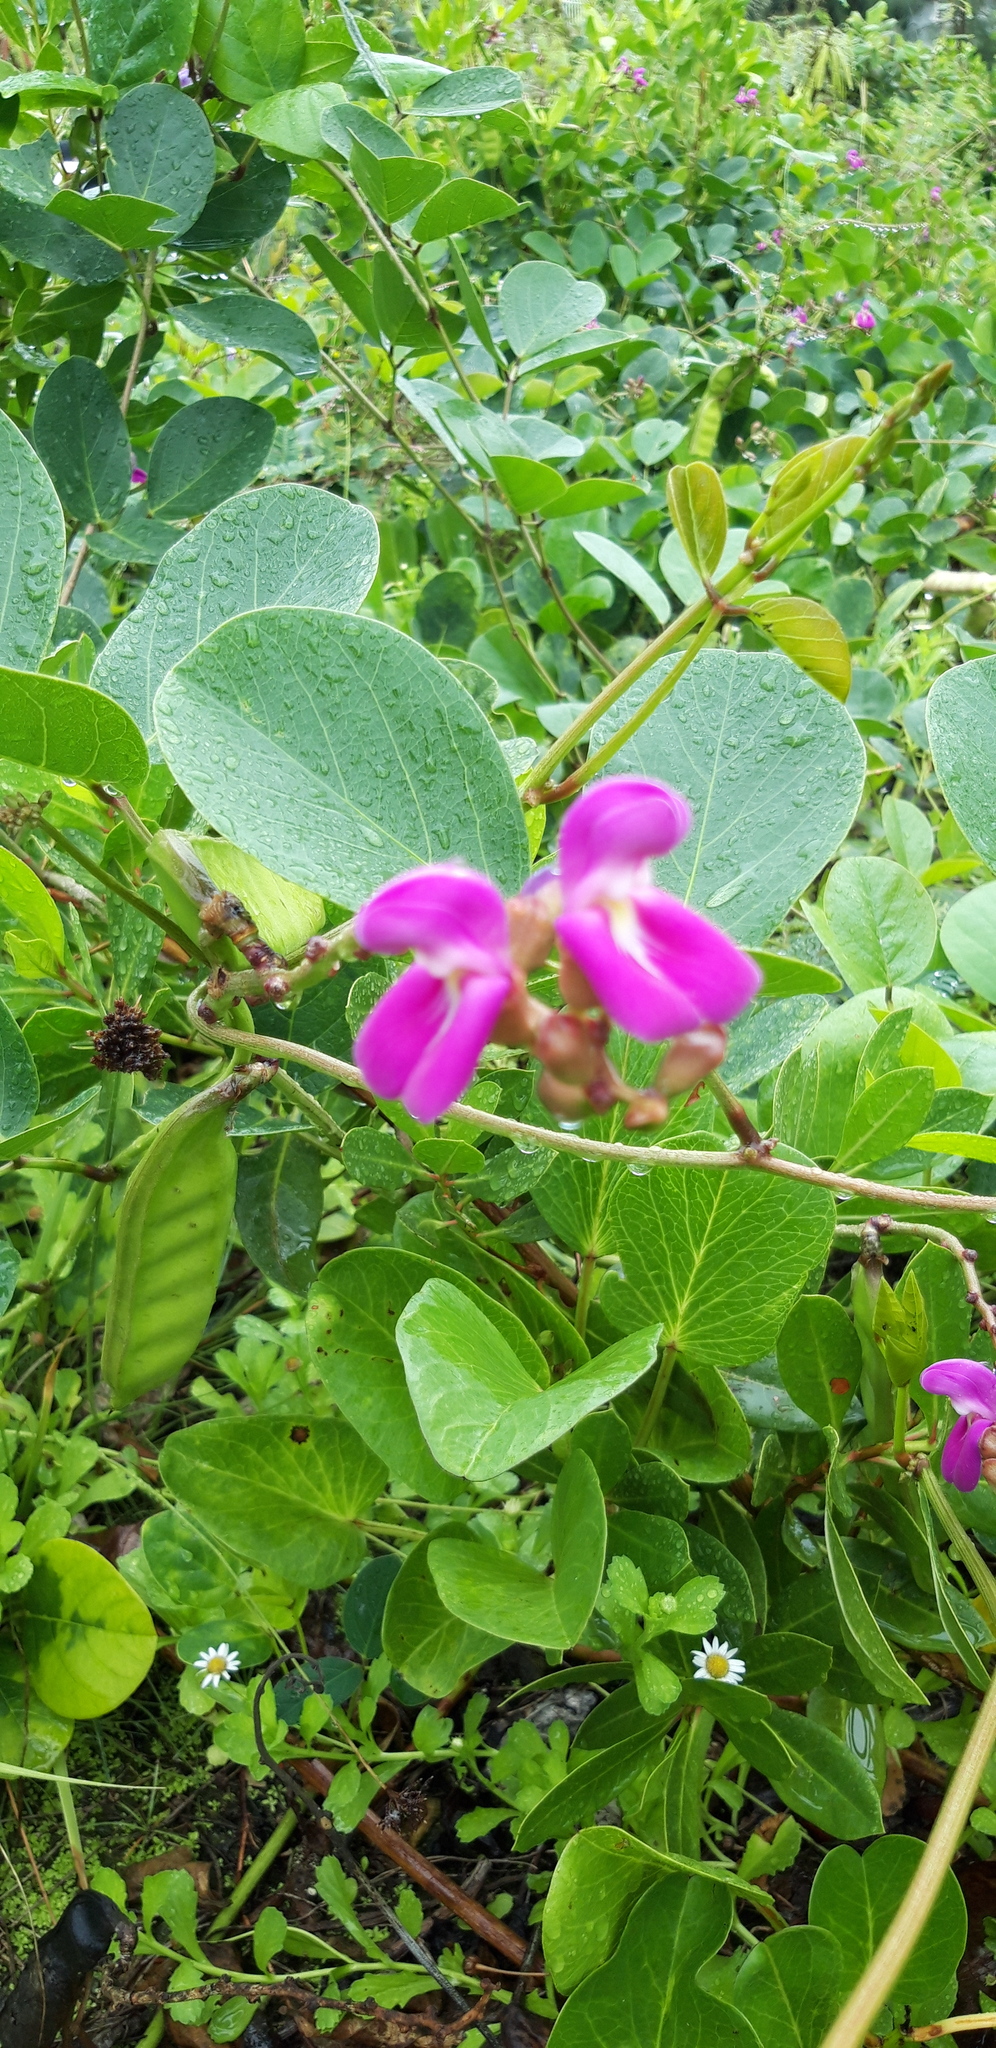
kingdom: Plantae
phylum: Tracheophyta
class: Magnoliopsida
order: Fabales
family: Fabaceae
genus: Canavalia
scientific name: Canavalia rosea
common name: Beach-bean
